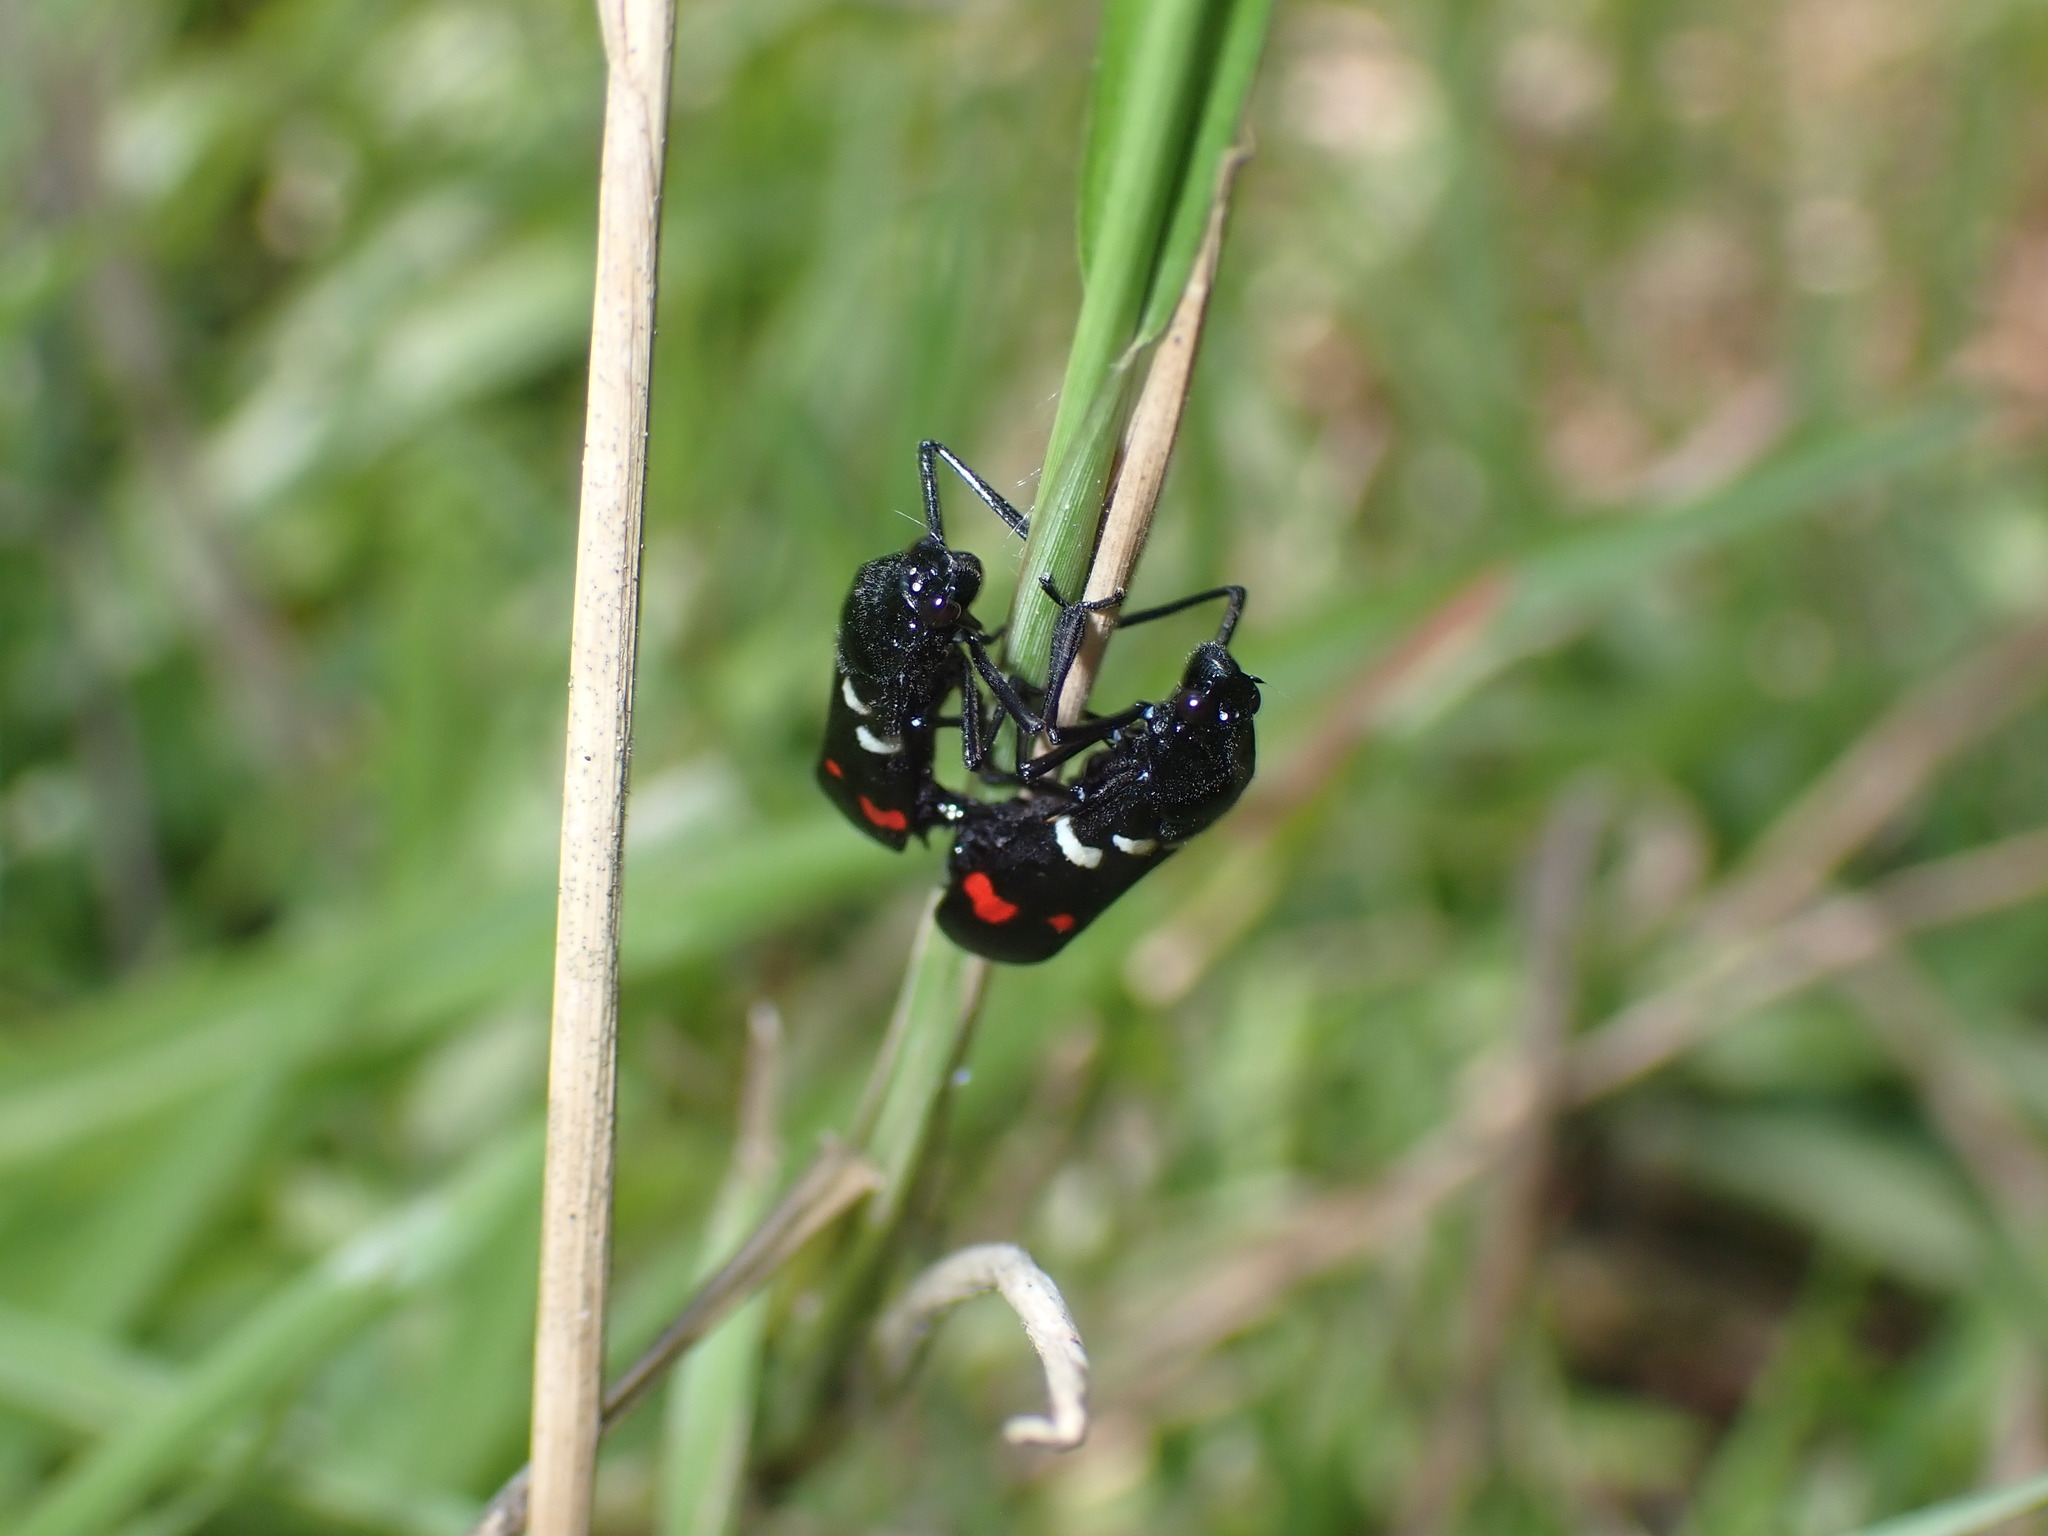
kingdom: Animalia
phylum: Arthropoda
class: Insecta
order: Hemiptera
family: Cercopidae
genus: Callitettix
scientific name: Callitettix versicolor
